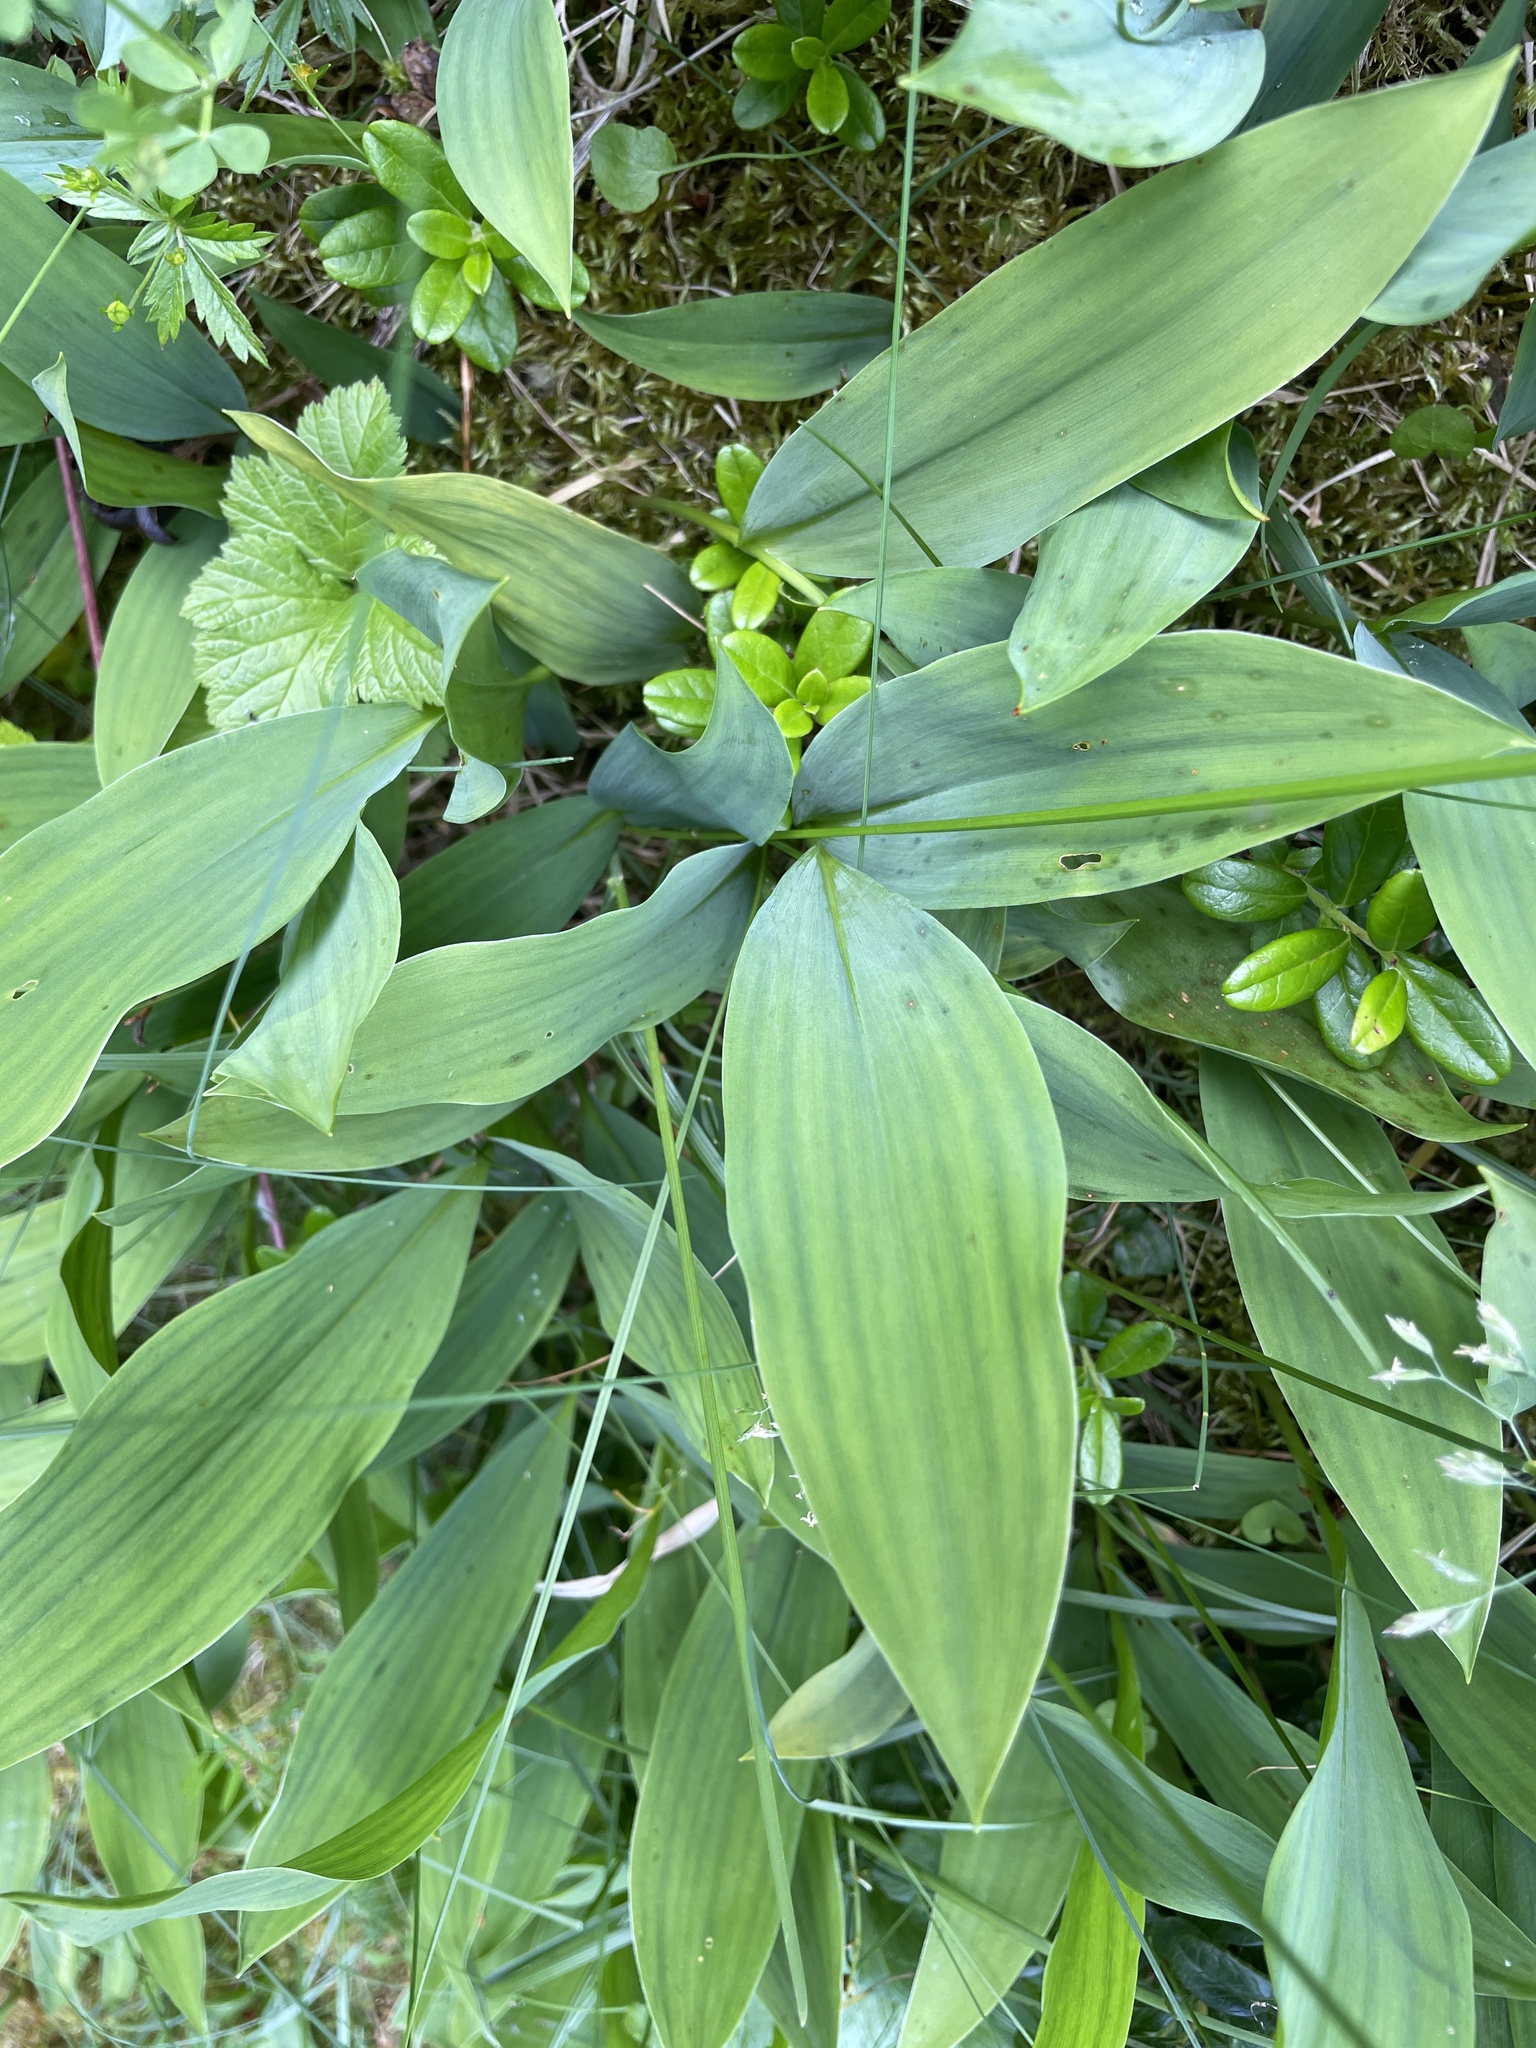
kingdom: Plantae
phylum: Tracheophyta
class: Liliopsida
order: Asparagales
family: Asparagaceae
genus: Convallaria
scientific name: Convallaria majalis
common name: Lily-of-the-valley
